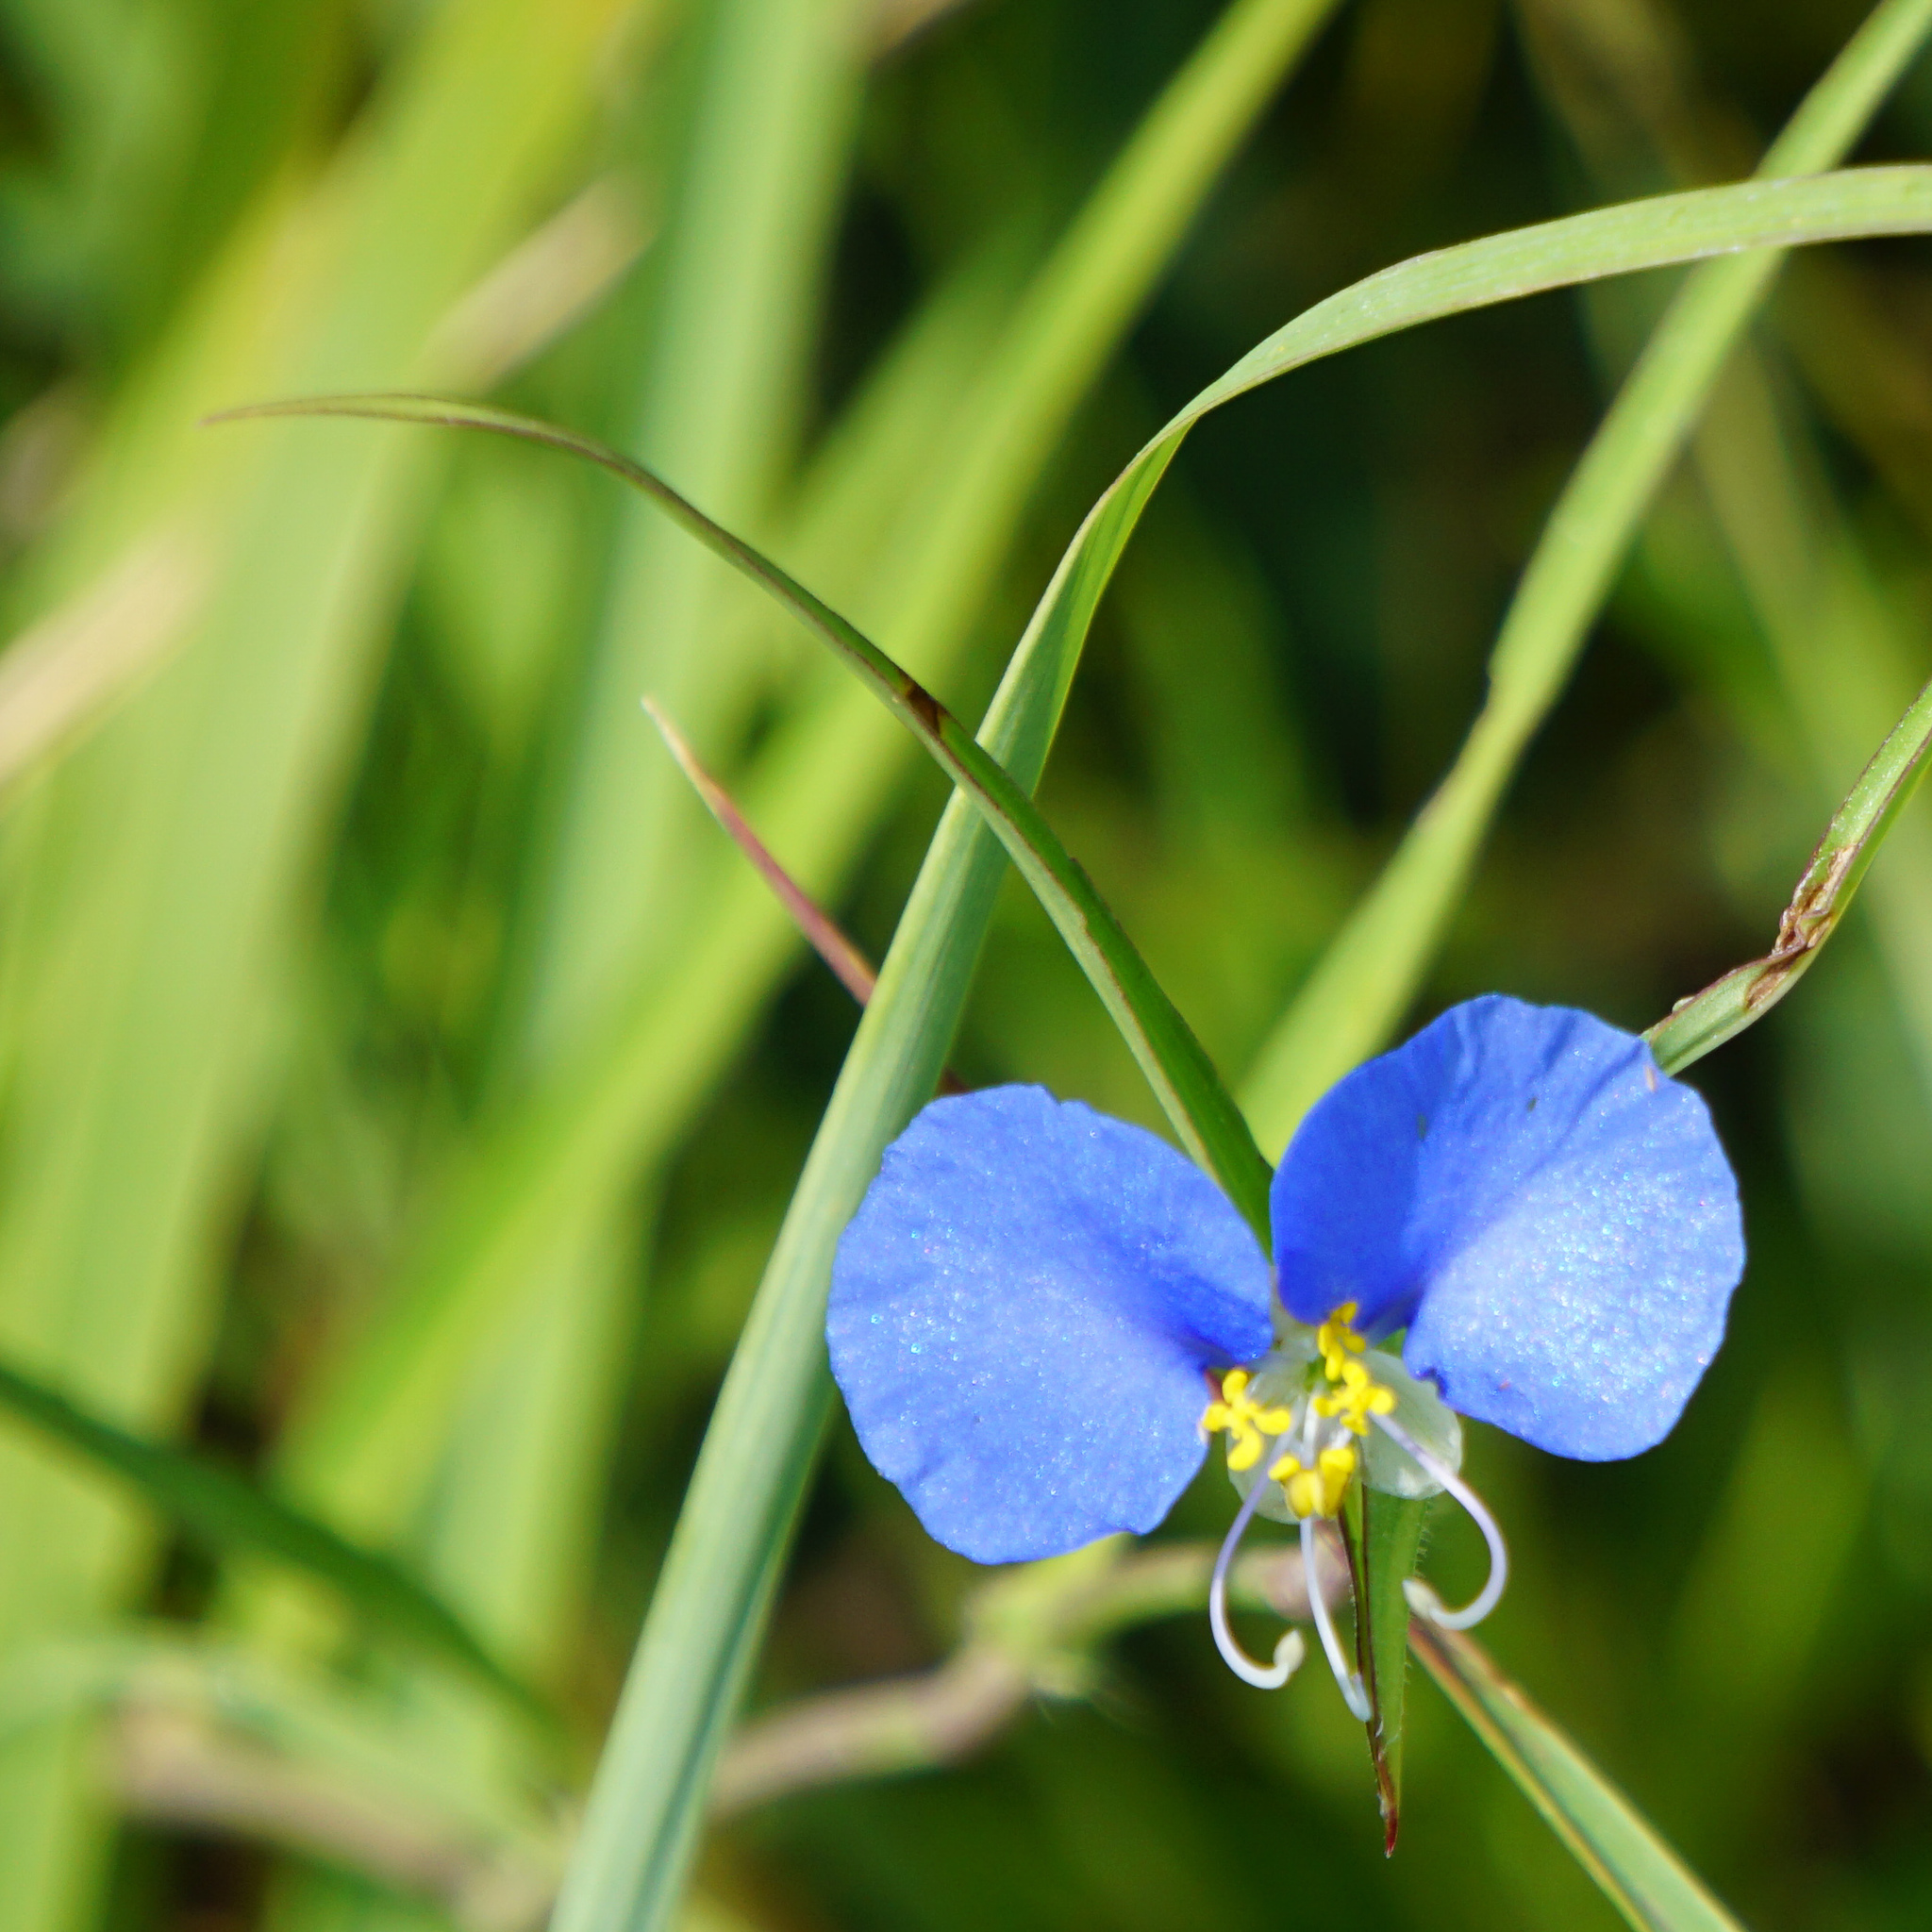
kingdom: Plantae
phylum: Tracheophyta
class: Liliopsida
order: Commelinales
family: Commelinaceae
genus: Commelina
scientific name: Commelina erecta
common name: Blousel blommetjie
